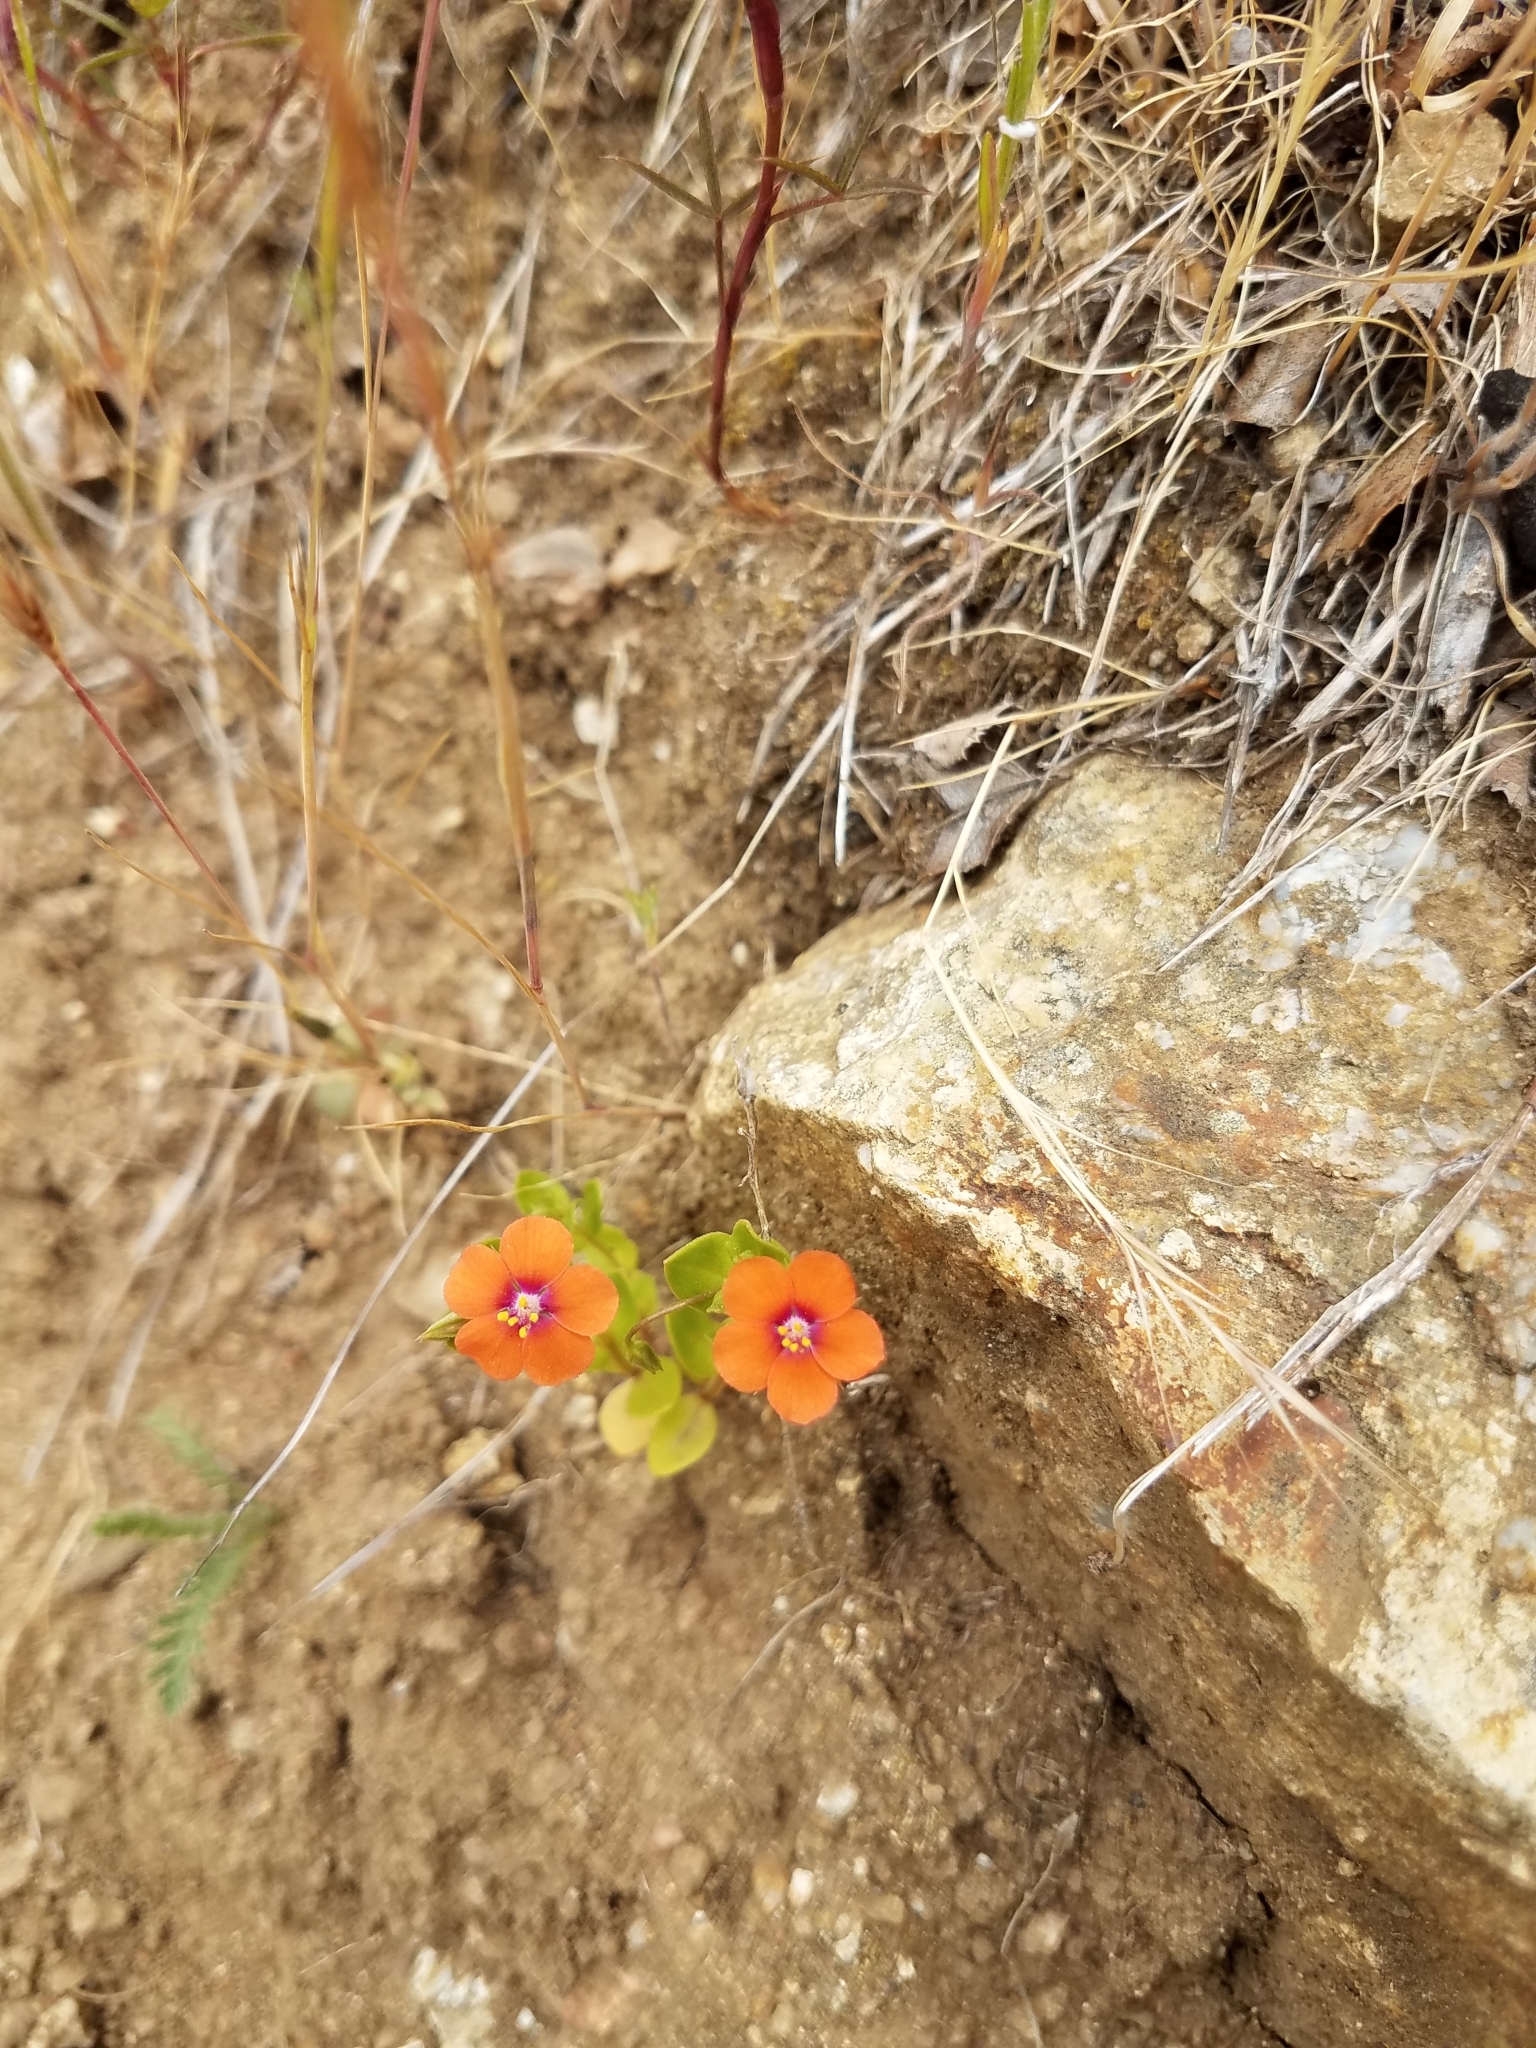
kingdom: Plantae
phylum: Tracheophyta
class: Magnoliopsida
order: Ericales
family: Primulaceae
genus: Lysimachia
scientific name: Lysimachia arvensis
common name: Scarlet pimpernel
